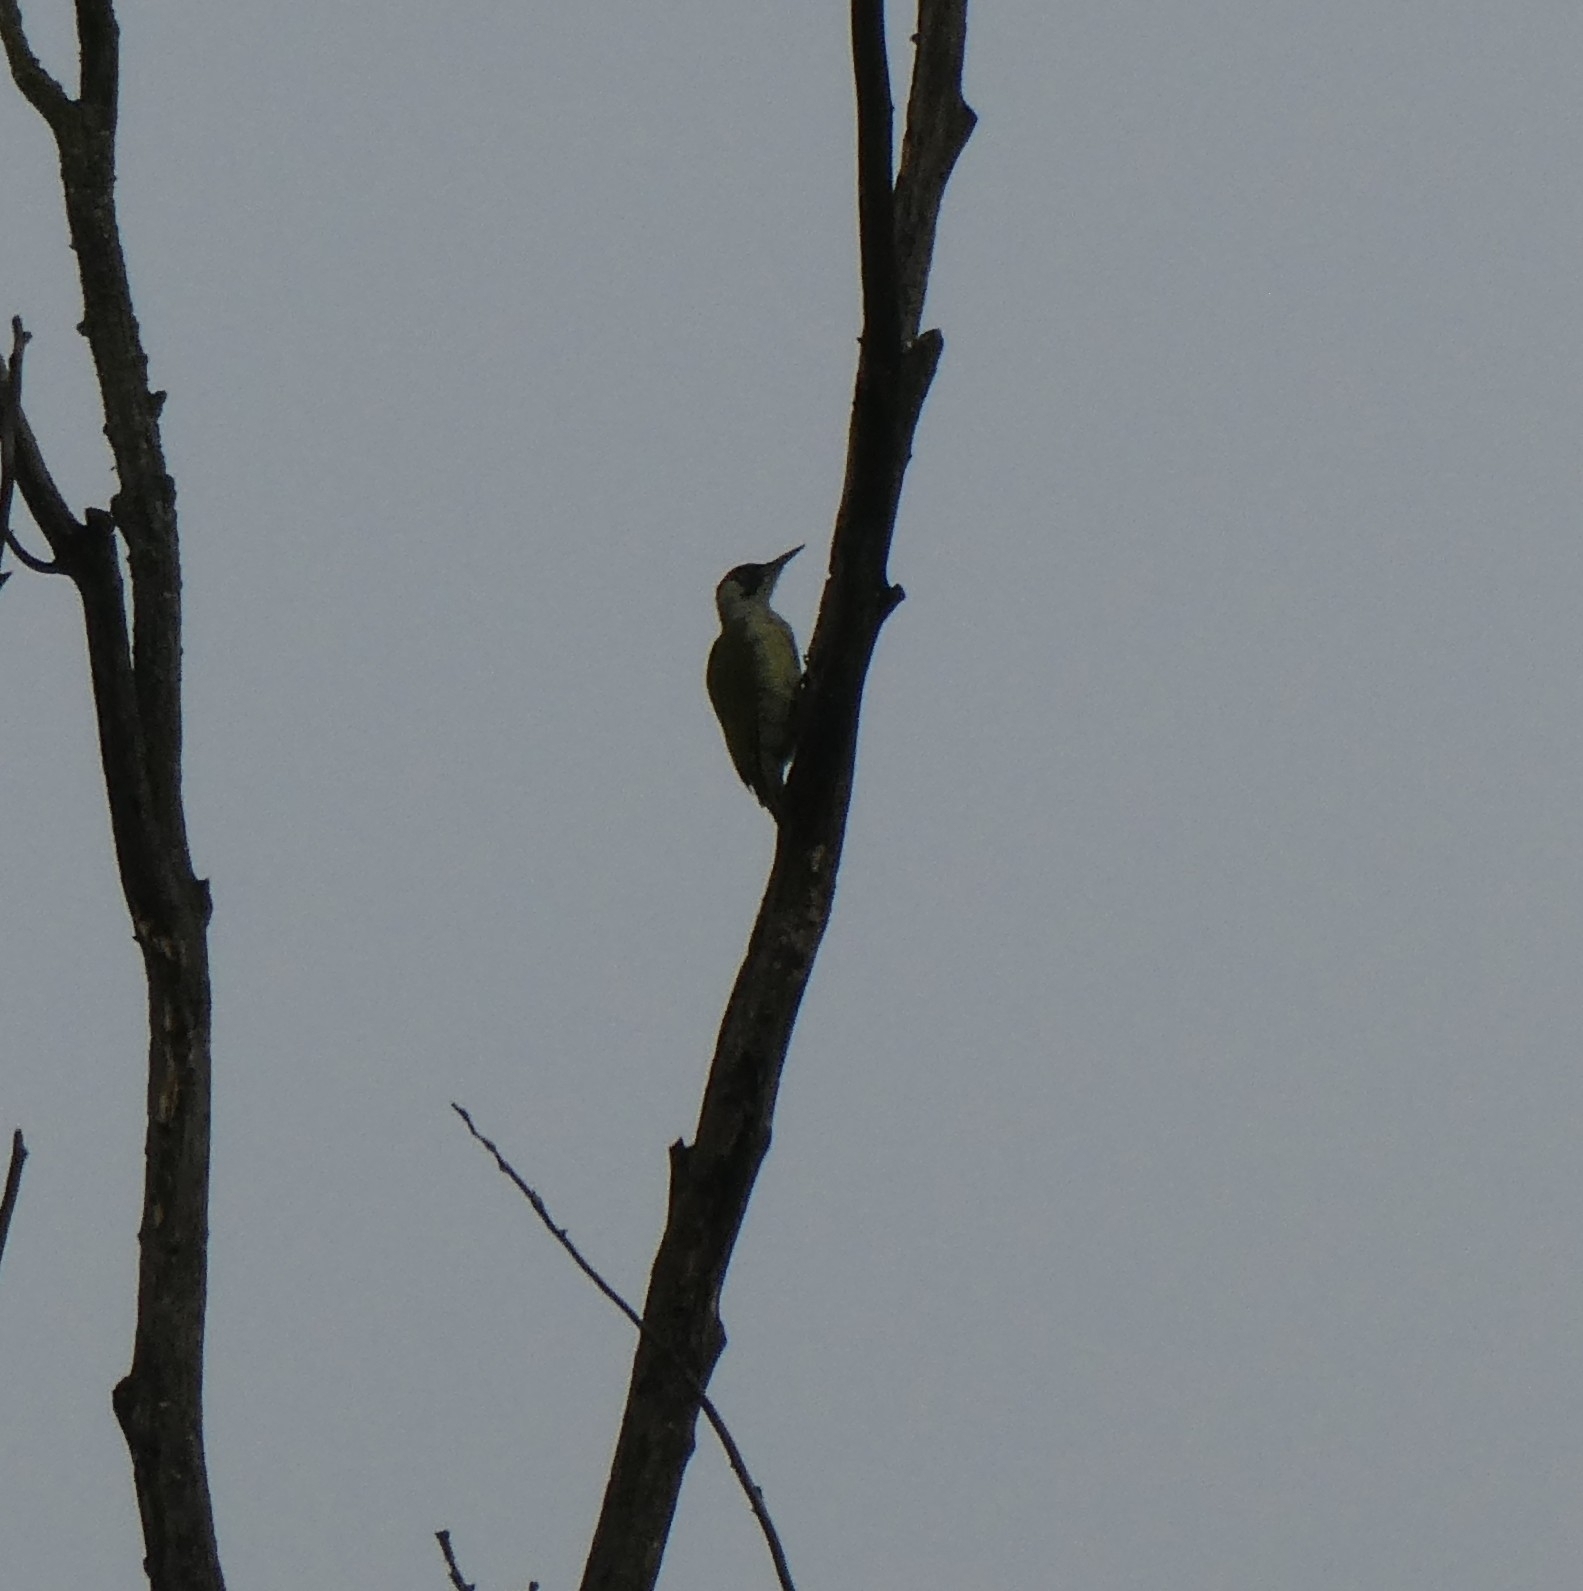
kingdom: Animalia
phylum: Chordata
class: Aves
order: Piciformes
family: Picidae
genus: Picus
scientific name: Picus viridis
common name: European green woodpecker
